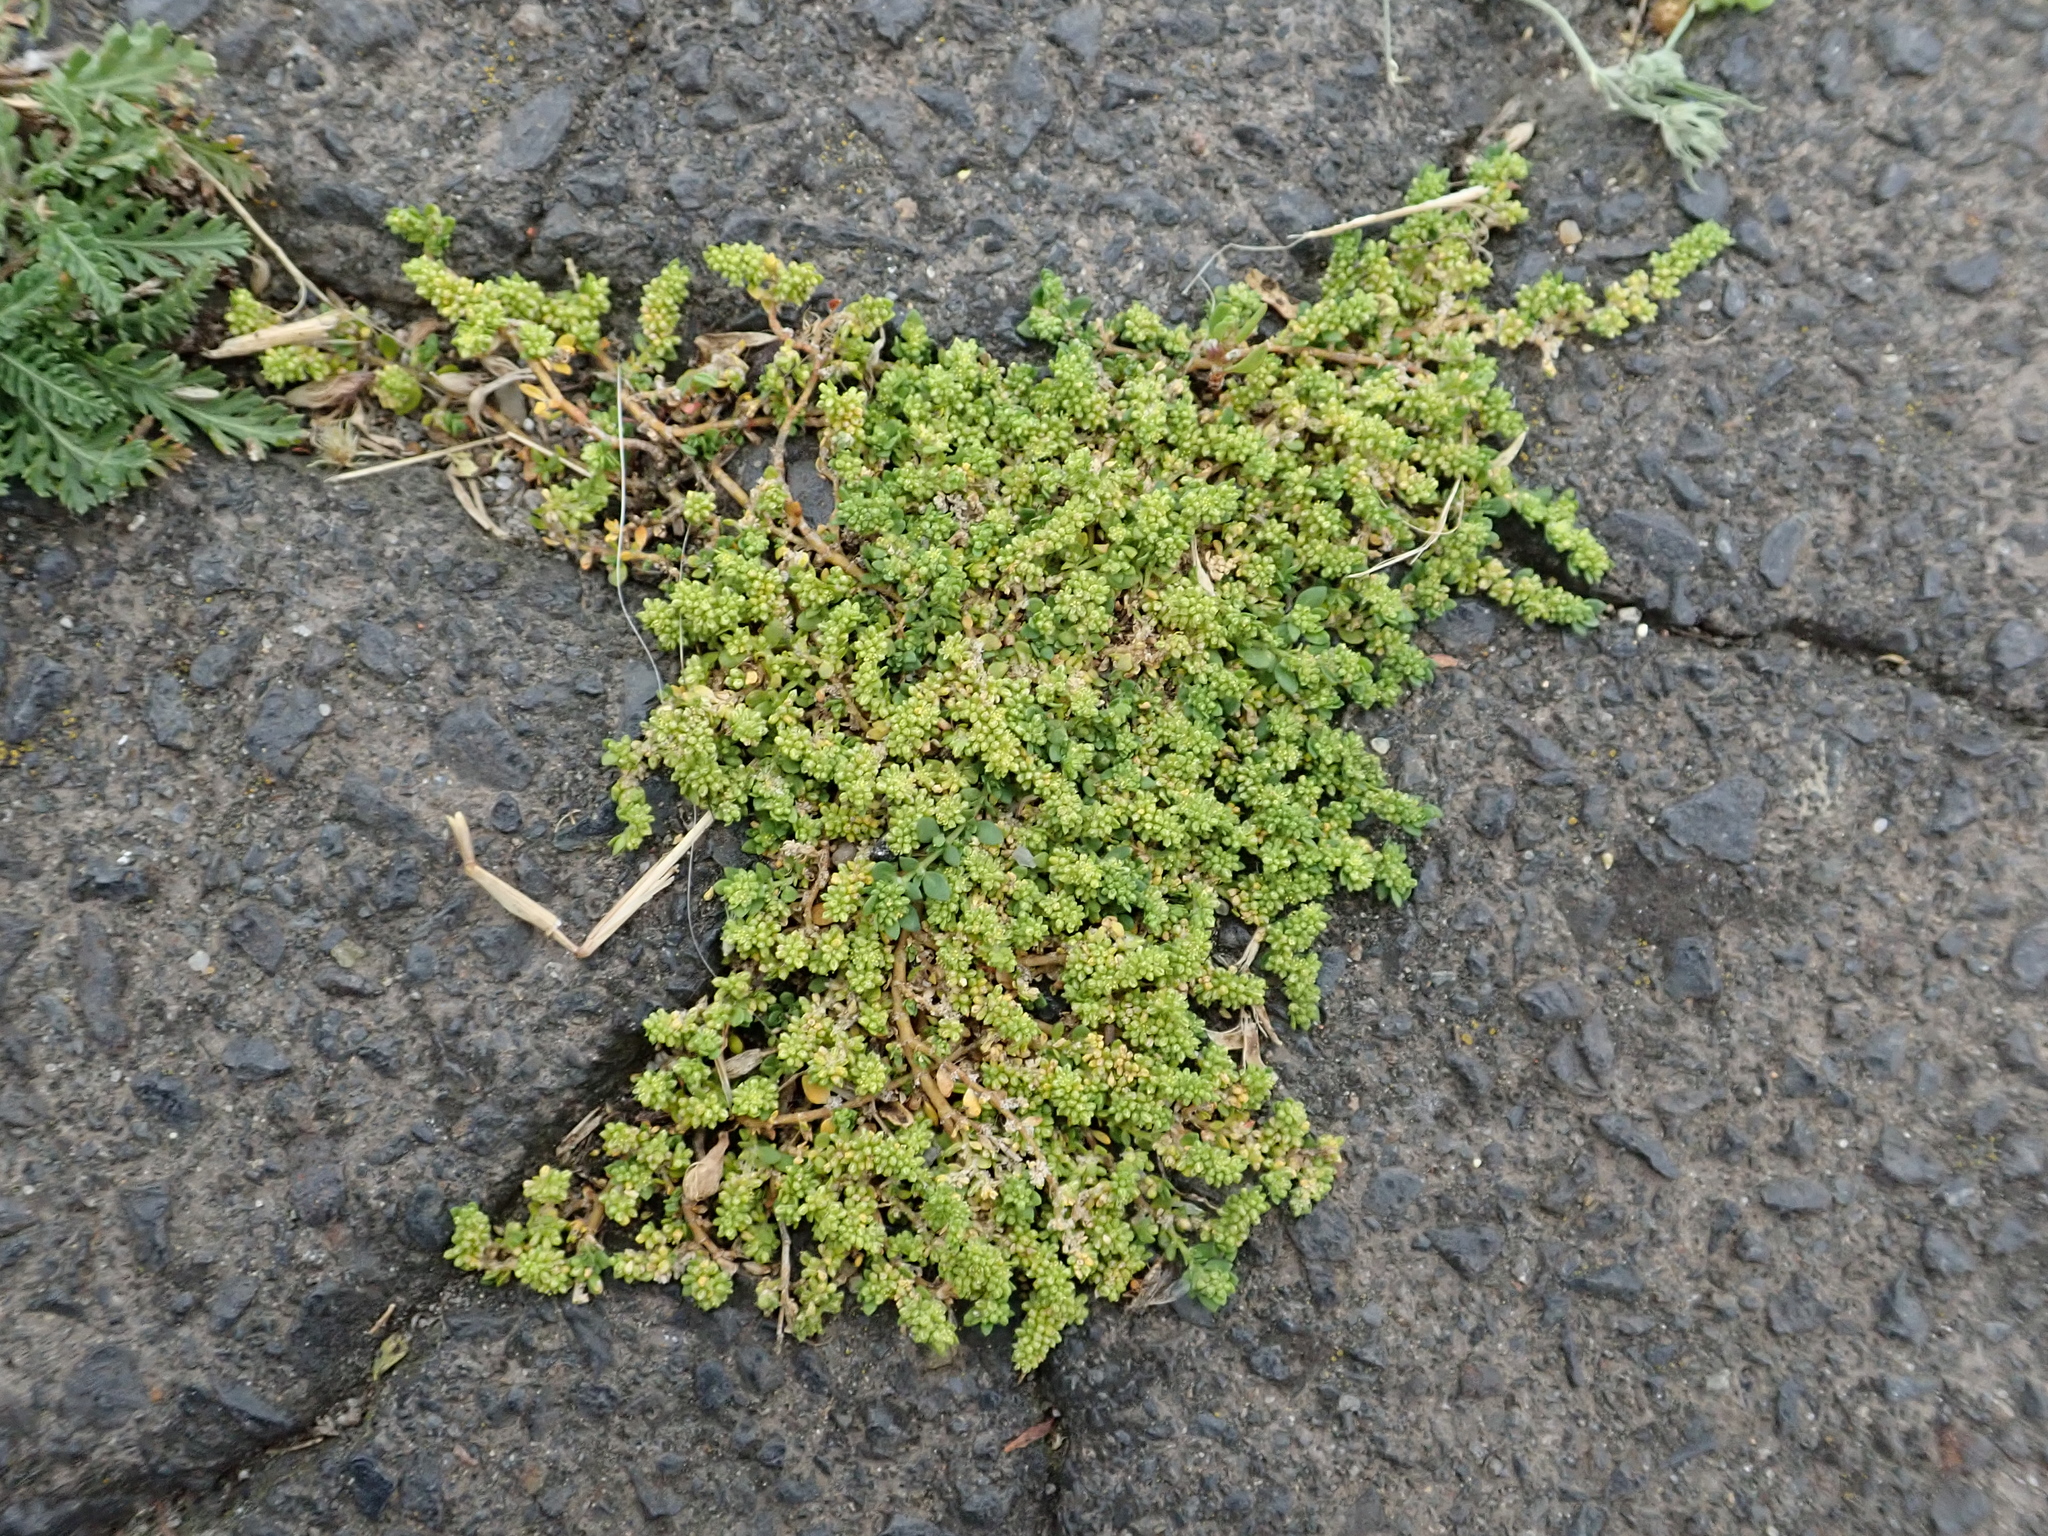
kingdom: Plantae
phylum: Tracheophyta
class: Magnoliopsida
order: Caryophyllales
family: Caryophyllaceae
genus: Herniaria
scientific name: Herniaria glabra
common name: Smooth rupturewort
